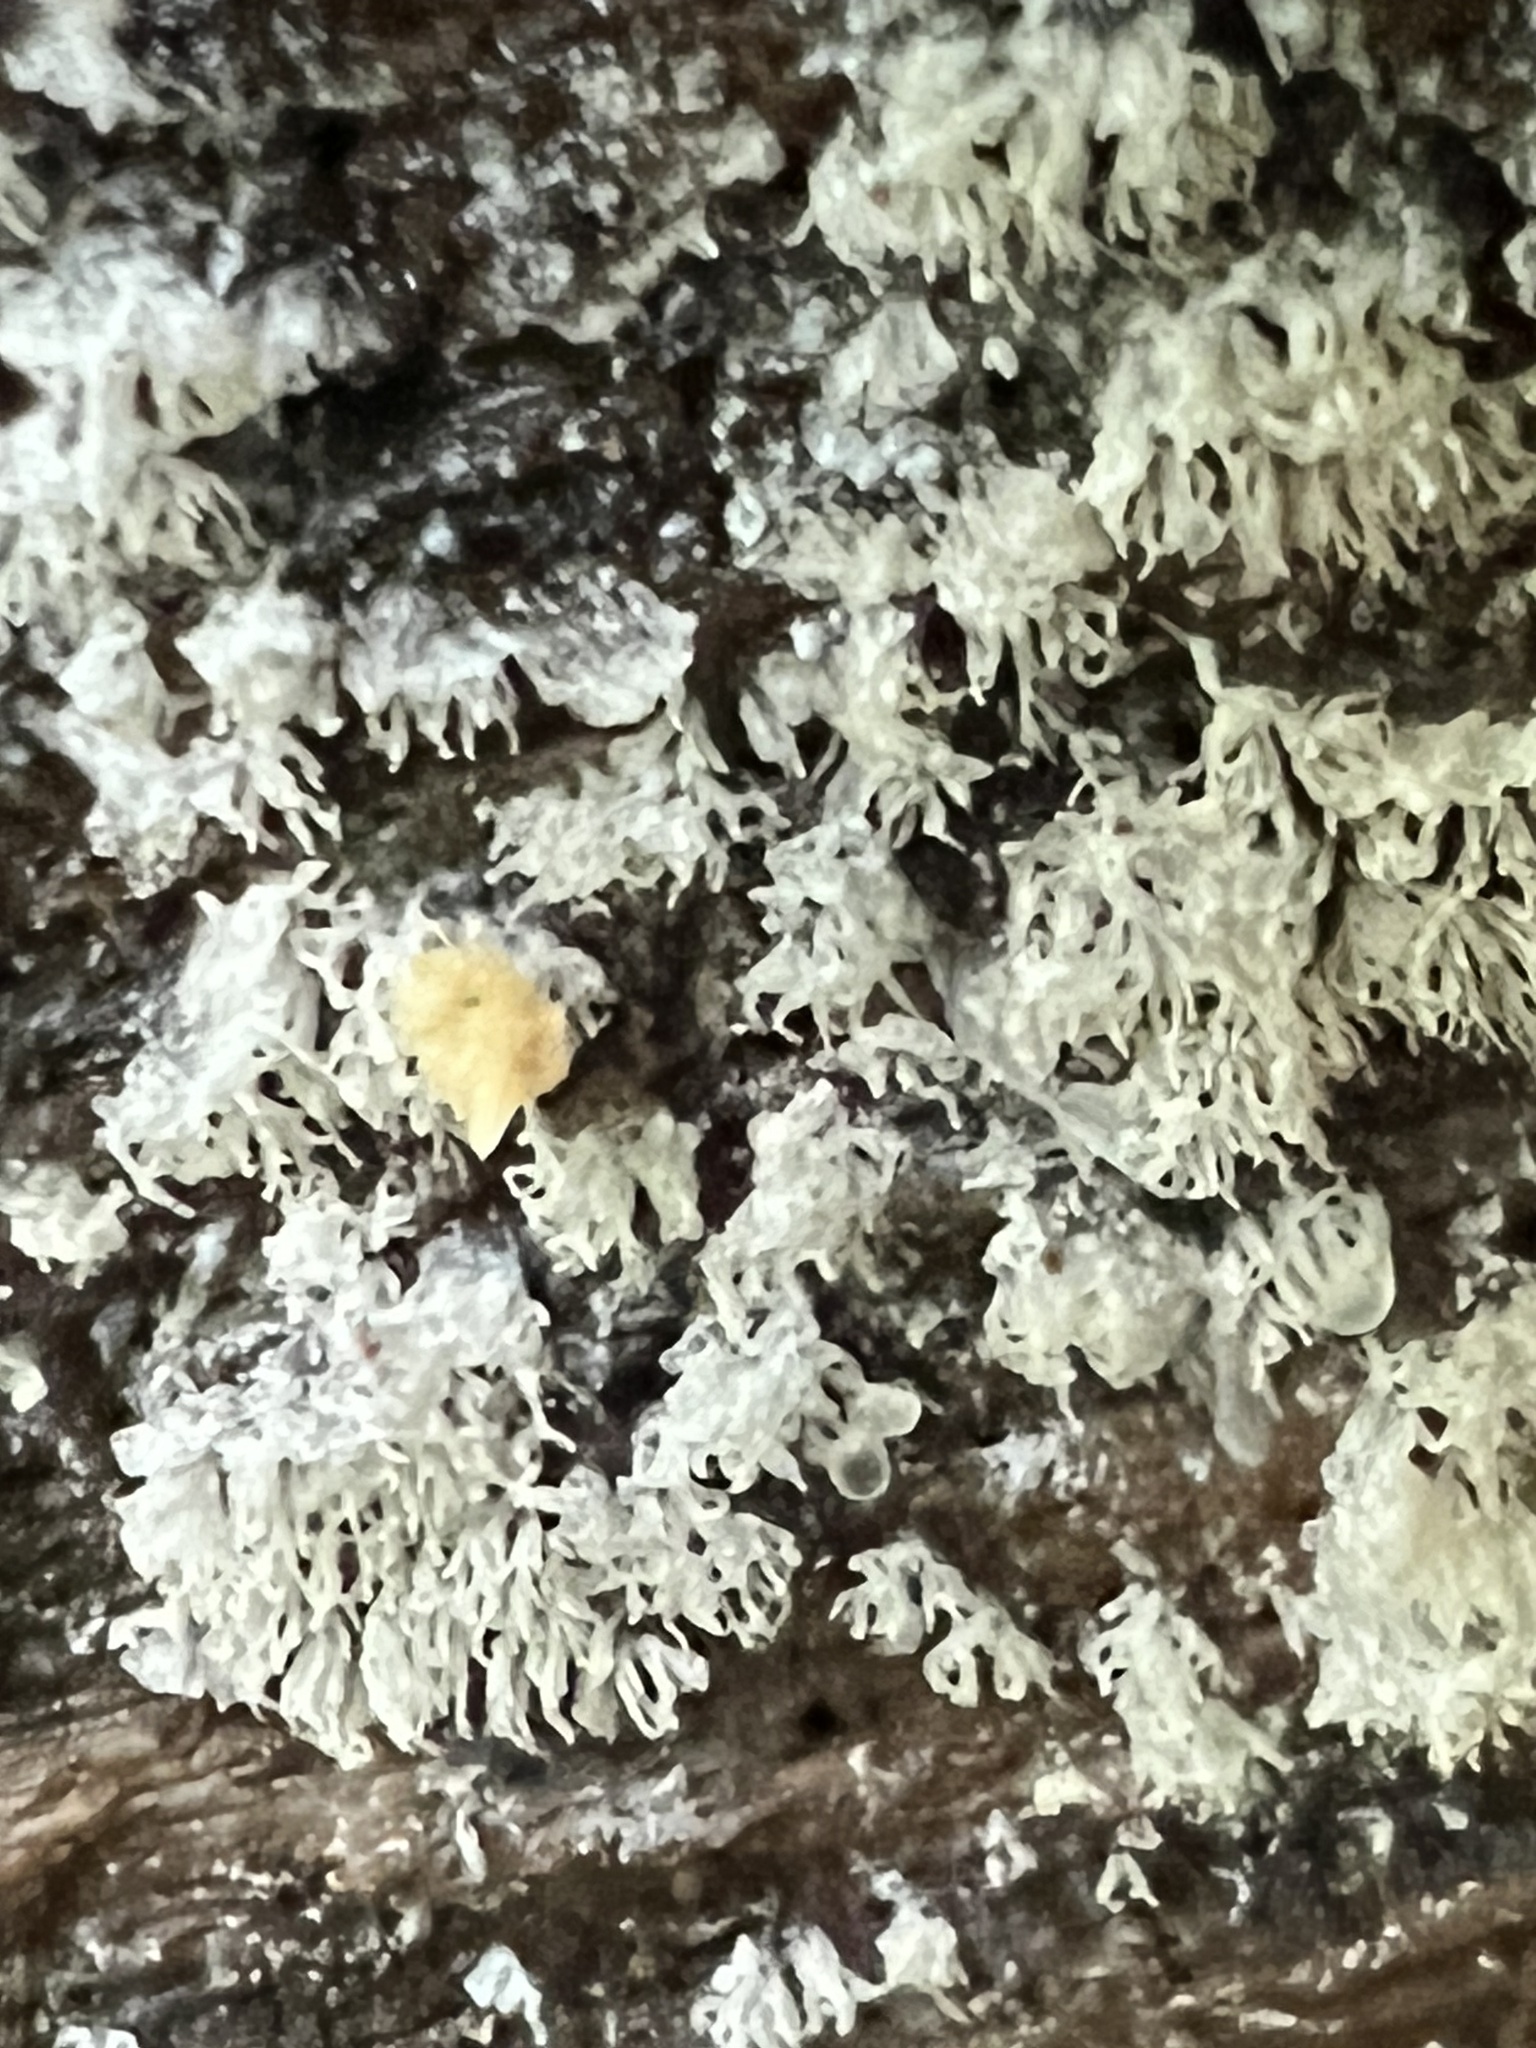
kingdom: Protozoa
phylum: Mycetozoa
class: Protosteliomycetes
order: Ceratiomyxales
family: Ceratiomyxaceae
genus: Ceratiomyxa
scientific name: Ceratiomyxa fruticulosa
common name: Honeycomb coral slime mold
